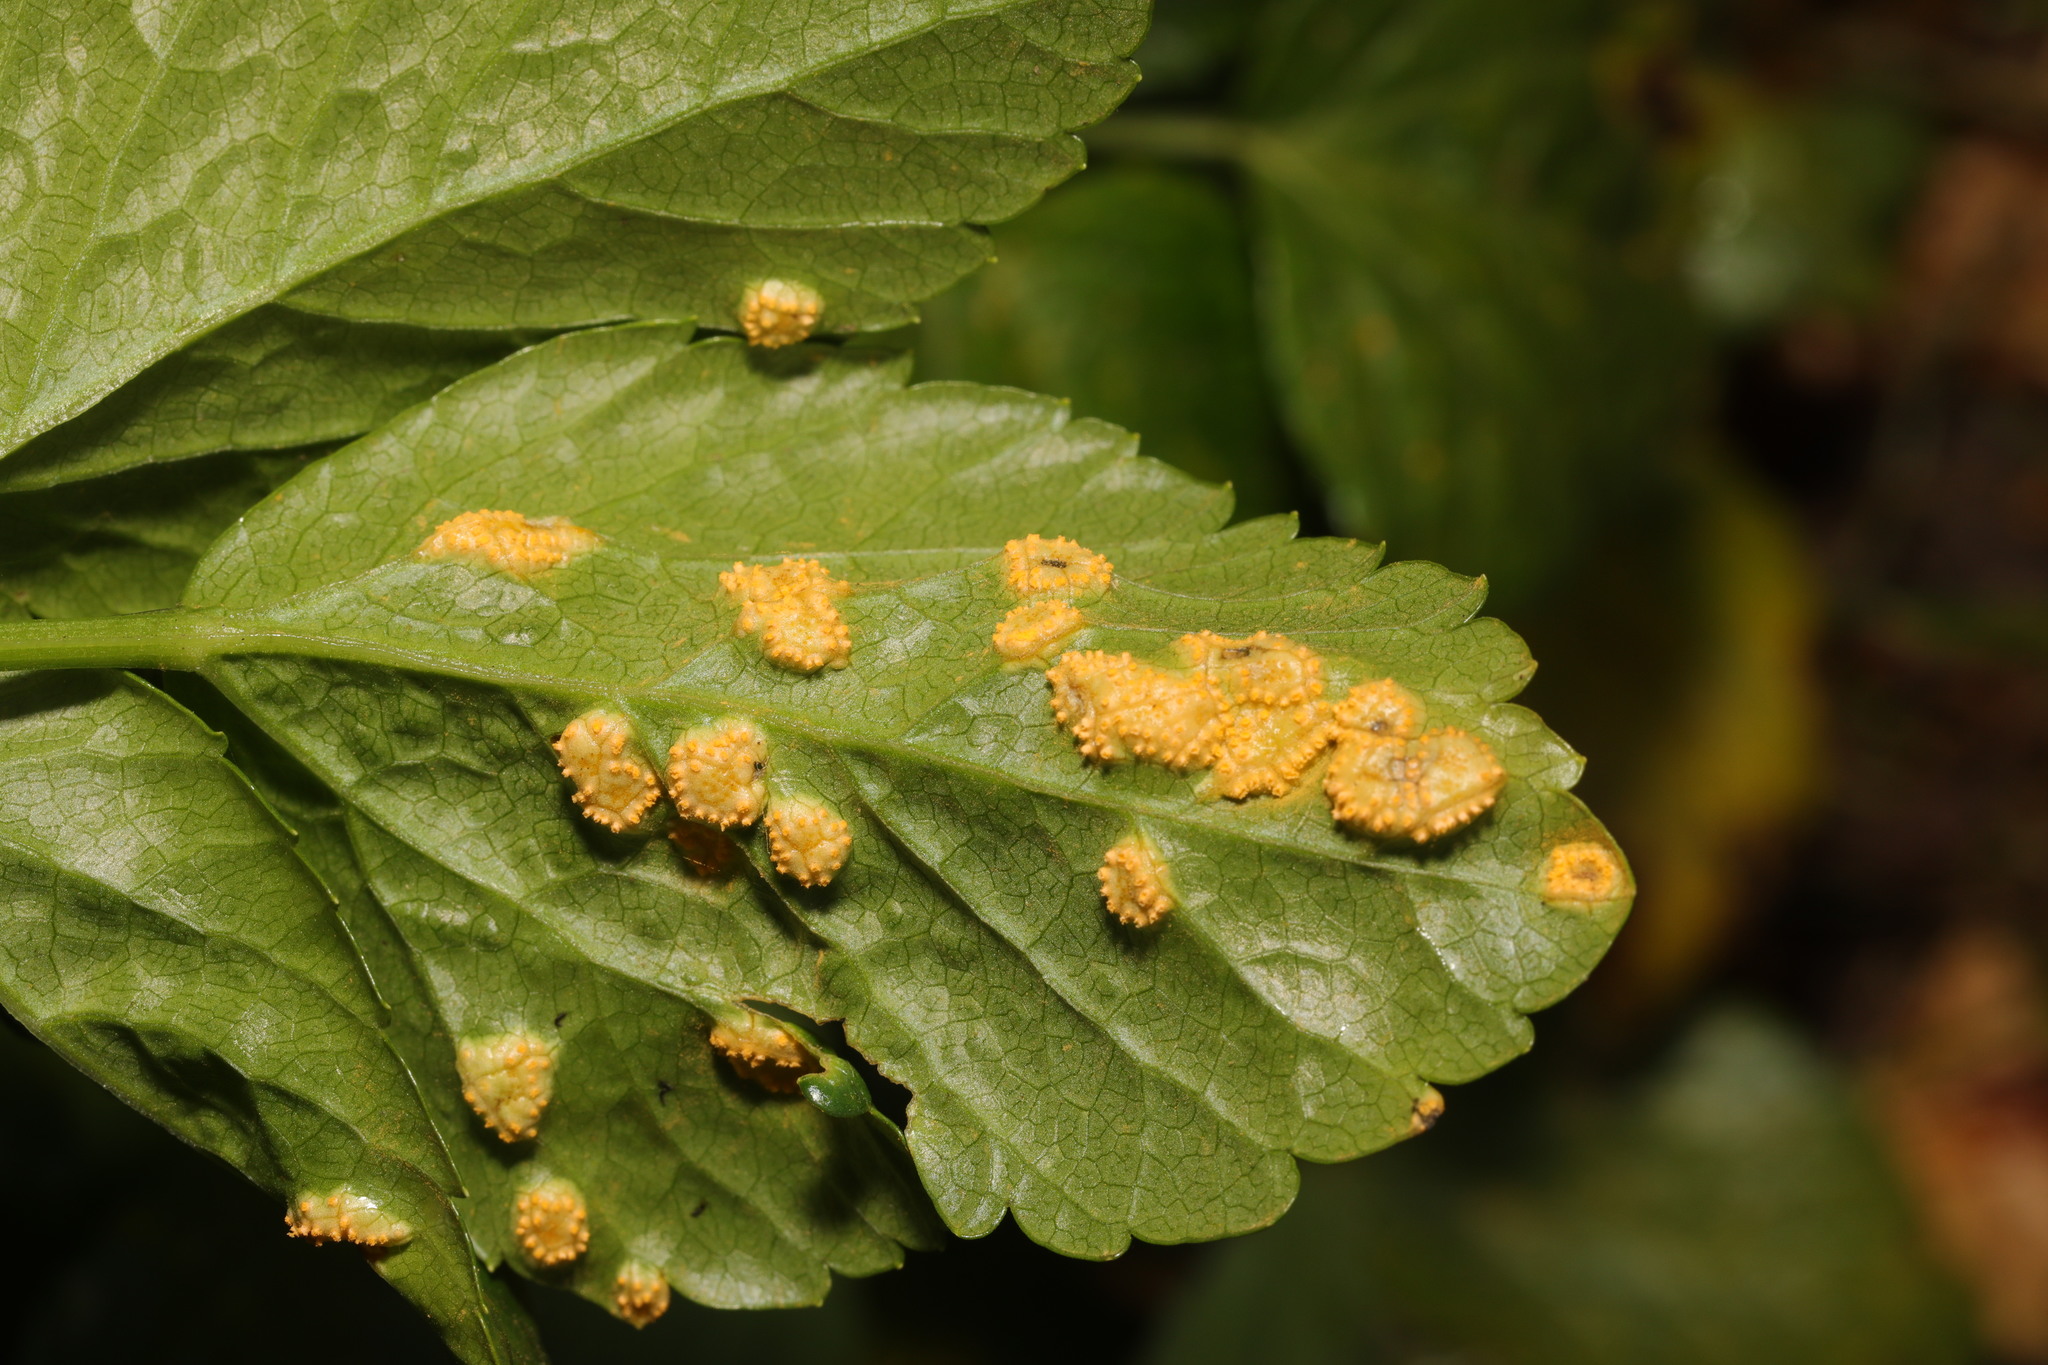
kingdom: Fungi
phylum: Basidiomycota
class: Pucciniomycetes
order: Pucciniales
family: Pucciniaceae
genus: Puccinia
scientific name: Puccinia smyrnii
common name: Alexanders rust
